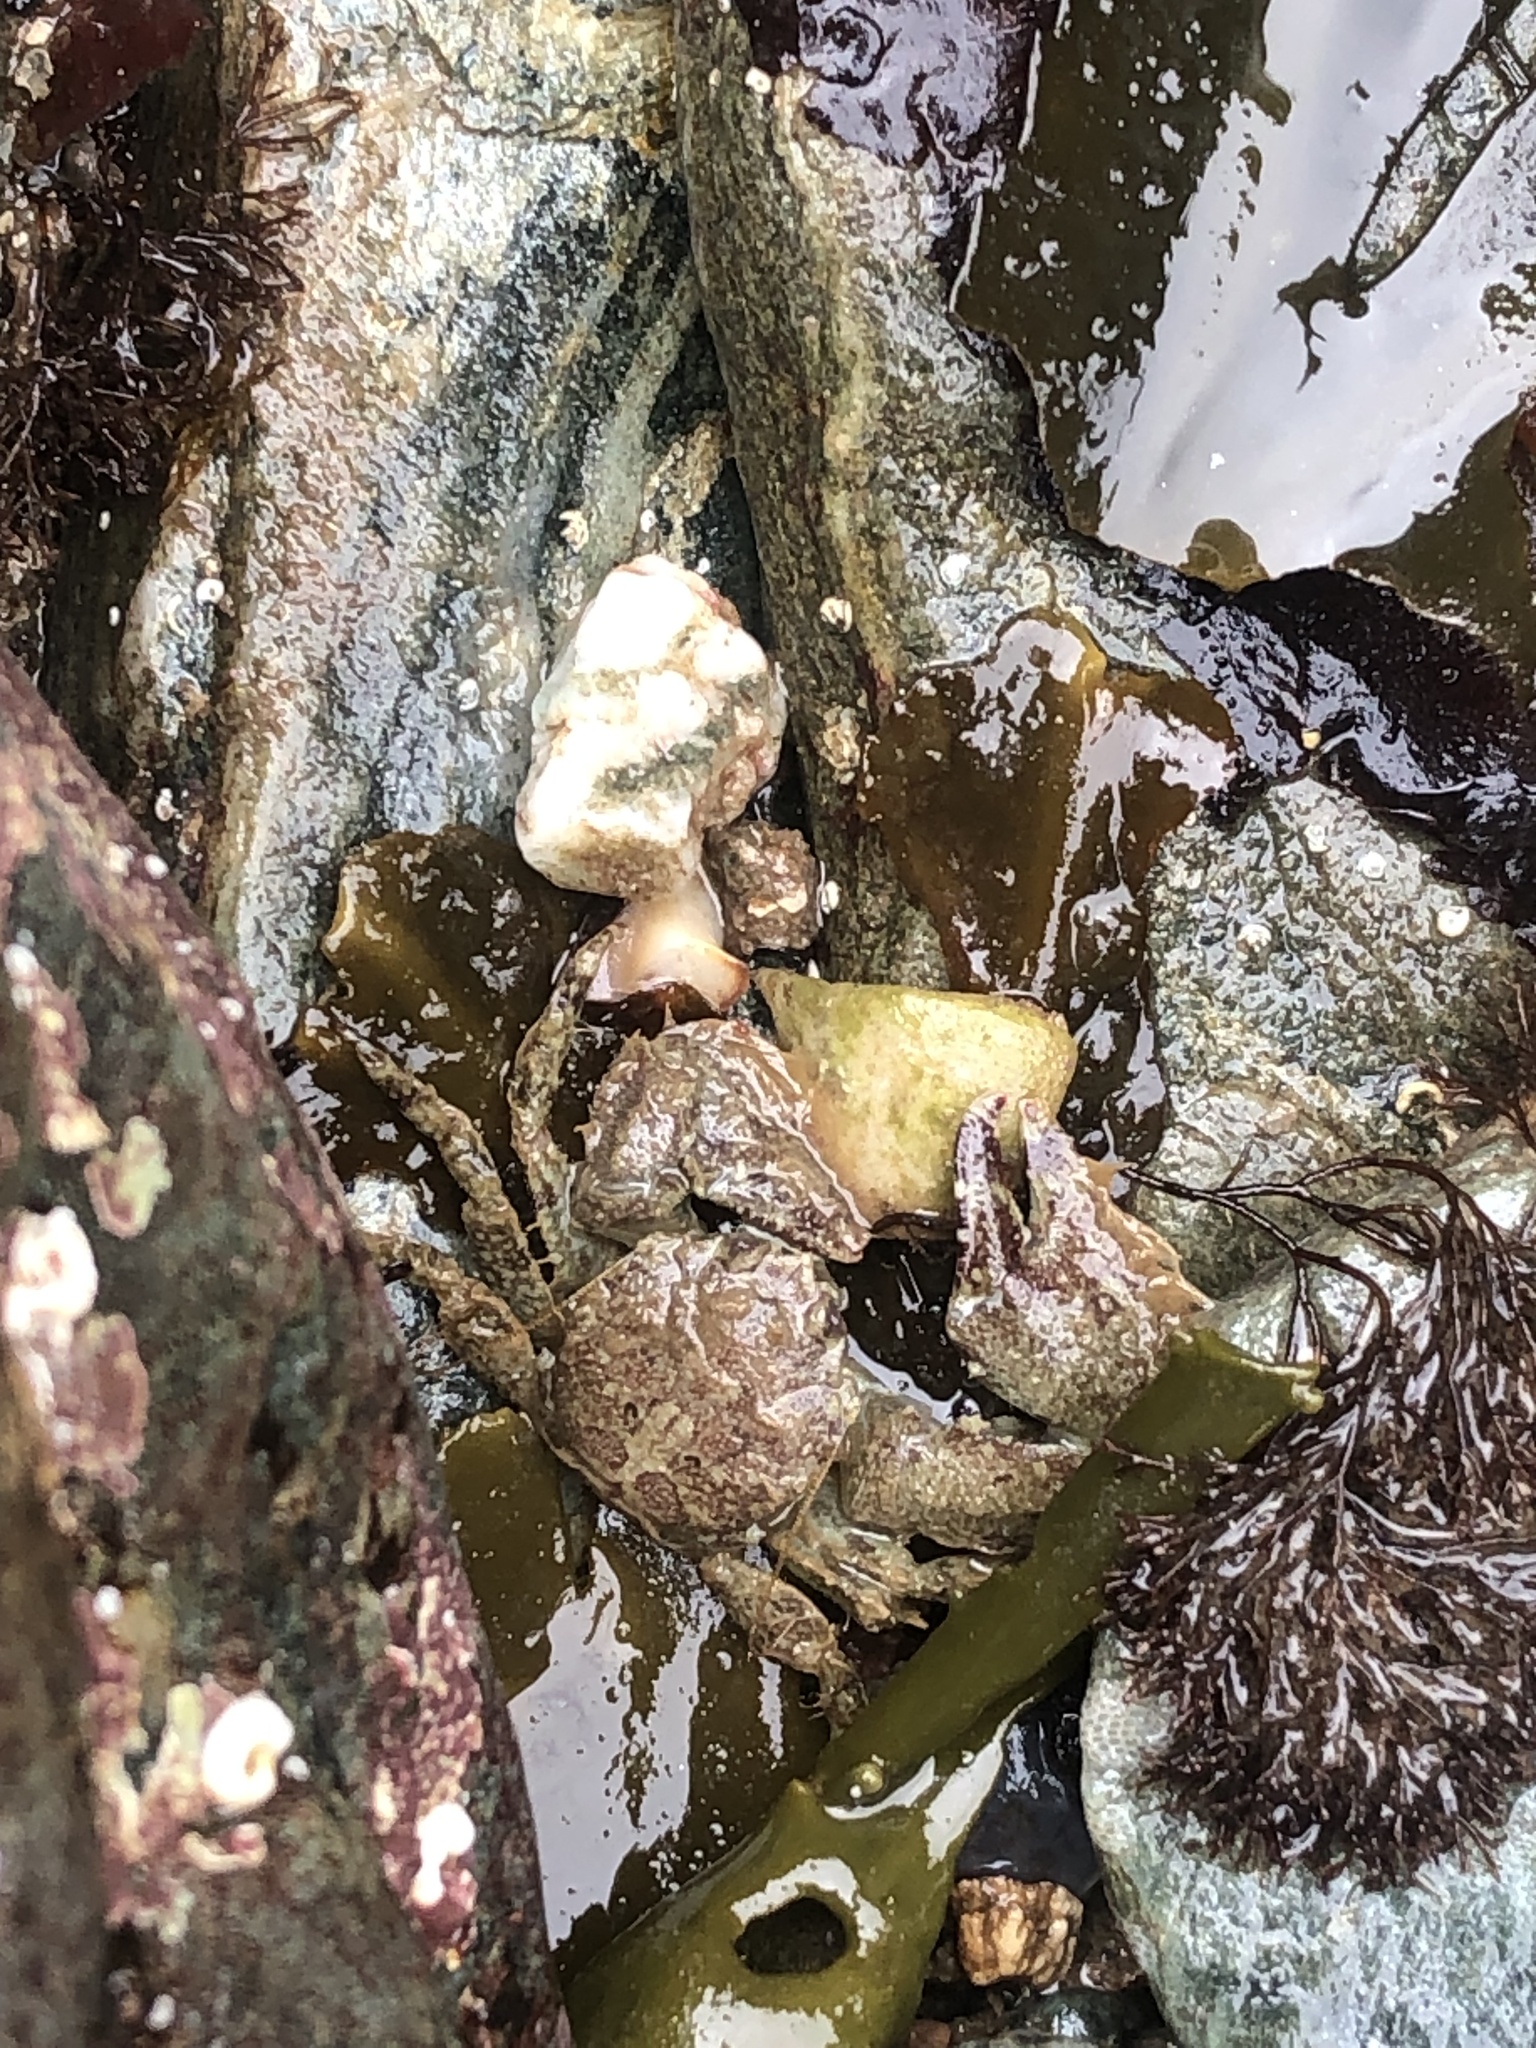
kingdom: Animalia
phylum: Arthropoda
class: Malacostraca
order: Decapoda
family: Porcellanidae
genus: Porcellana
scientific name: Porcellana platycheles
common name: Porcelain crab
